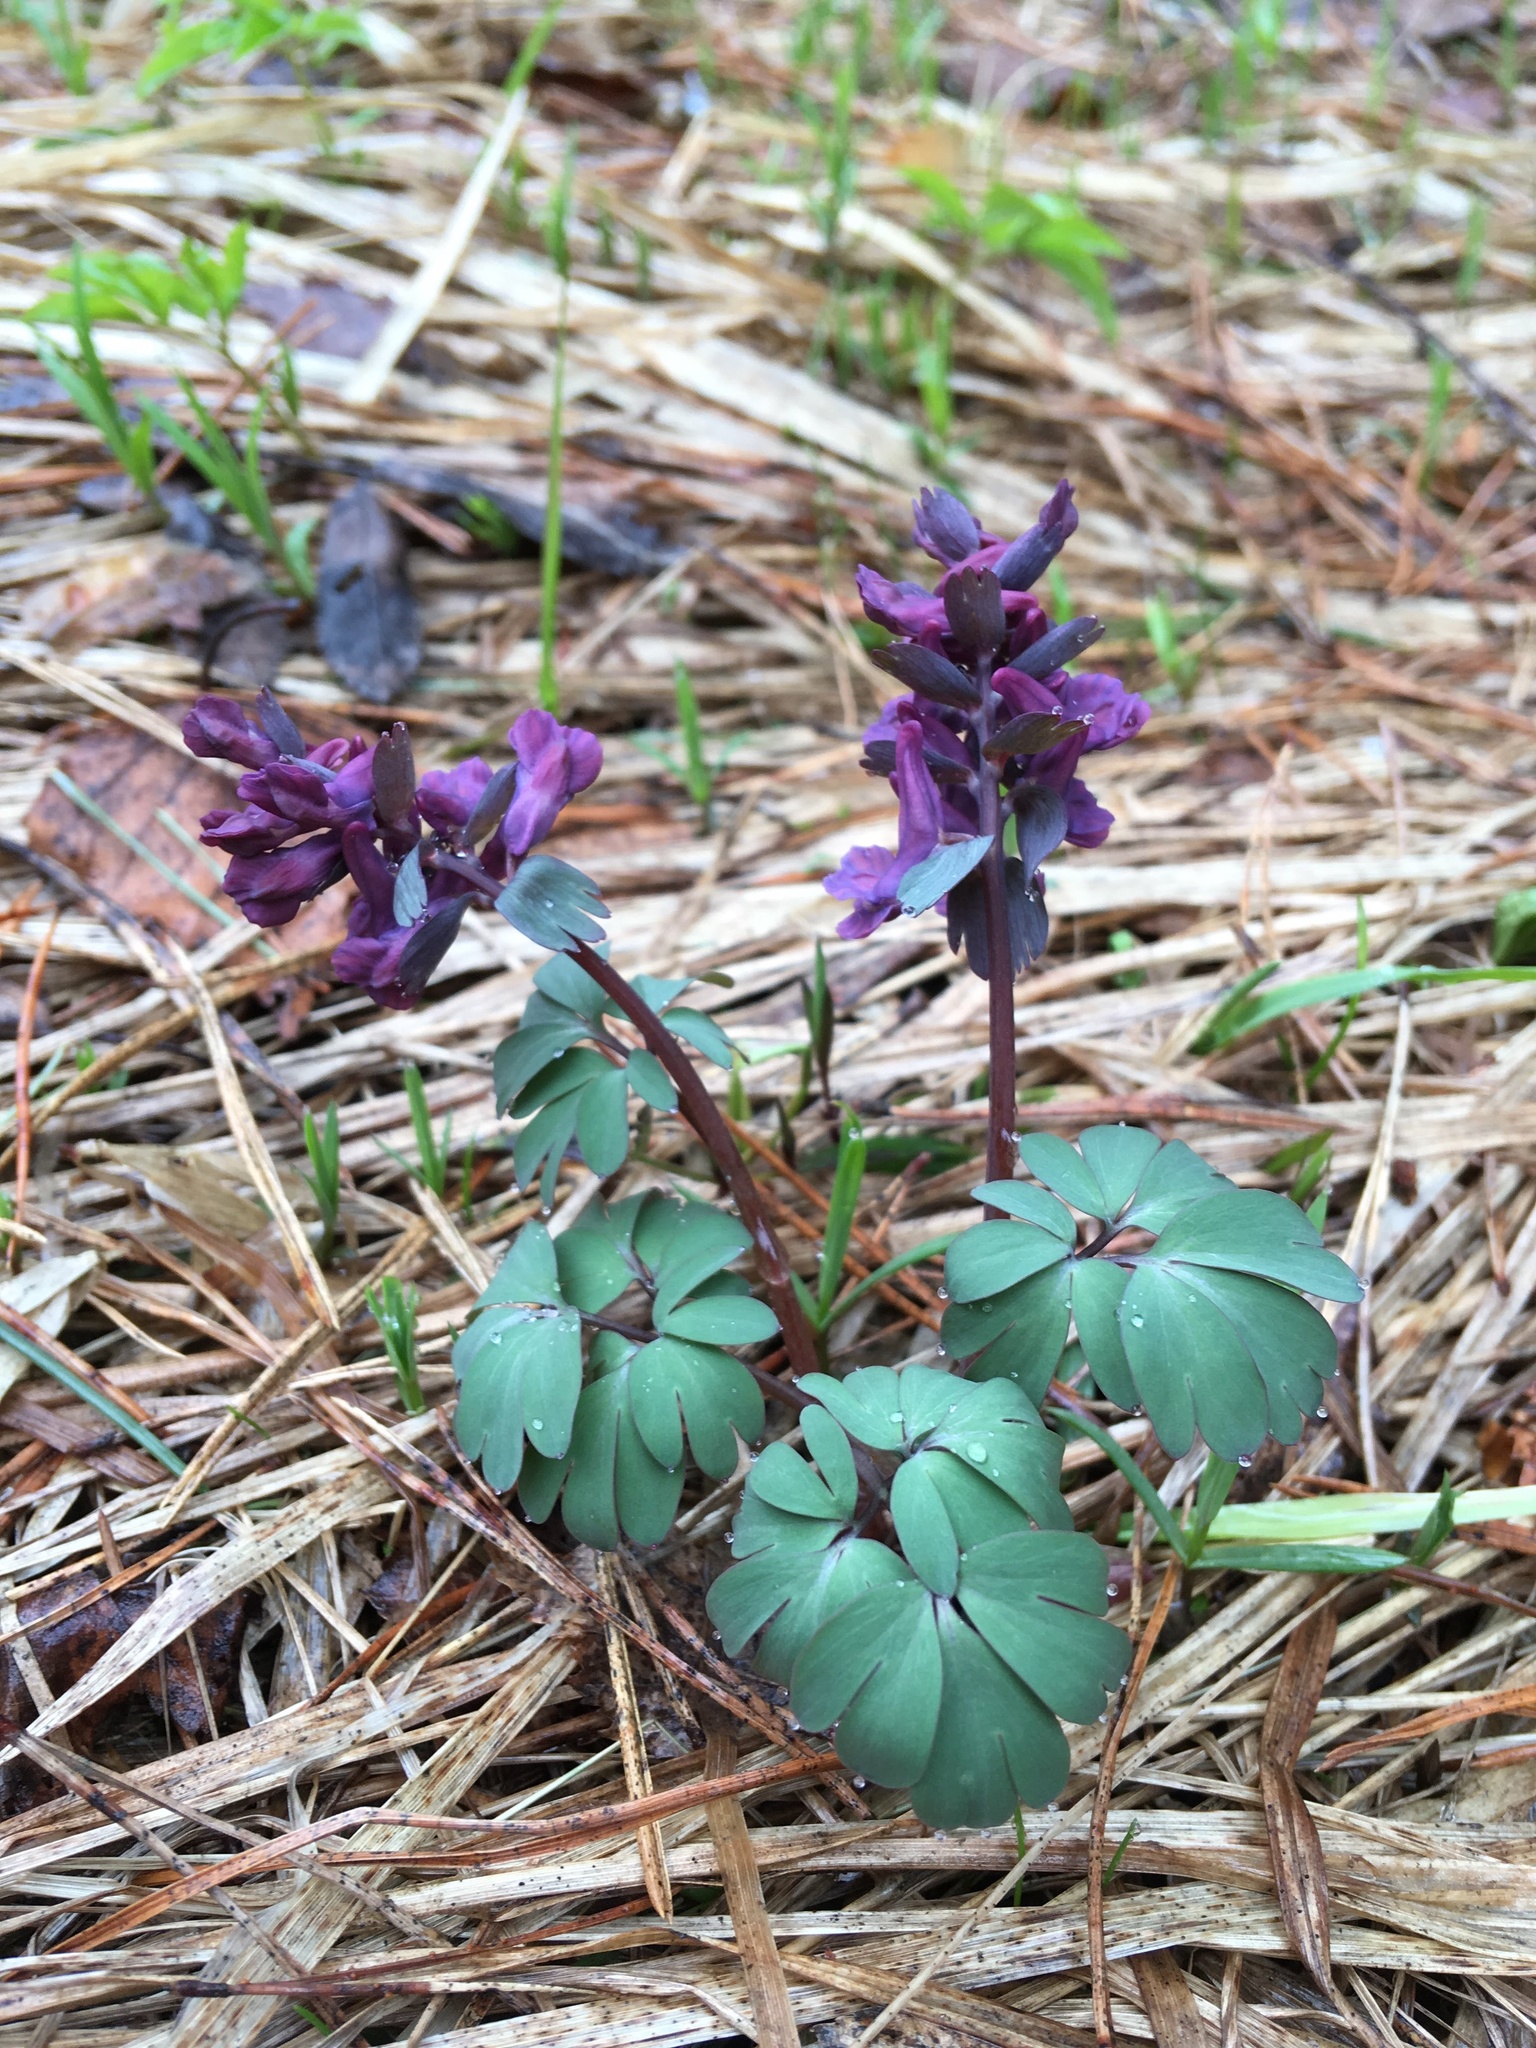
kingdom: Plantae
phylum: Tracheophyta
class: Magnoliopsida
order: Ranunculales
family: Papaveraceae
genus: Corydalis
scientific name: Corydalis solida
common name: Bird-in-a-bush
